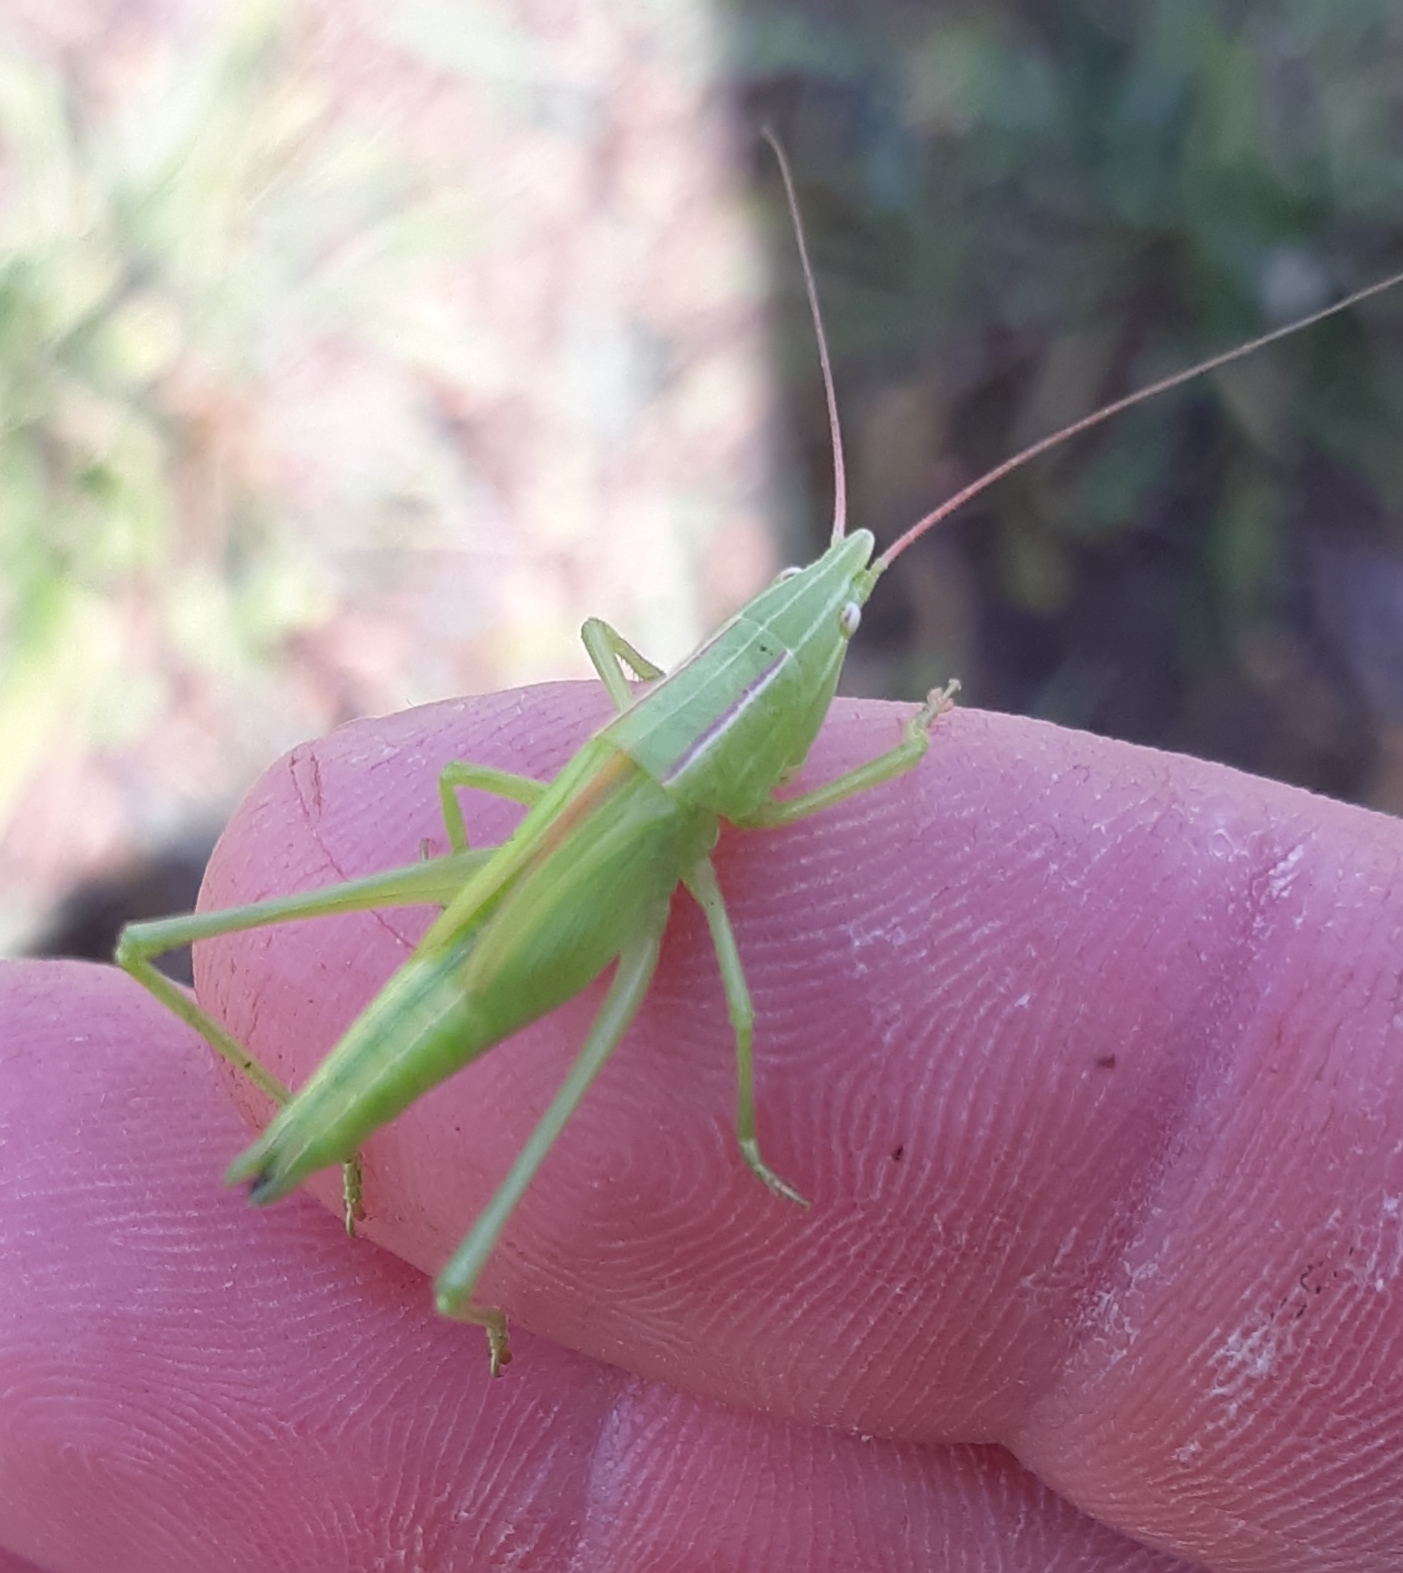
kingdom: Animalia
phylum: Arthropoda
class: Insecta
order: Orthoptera
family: Tettigoniidae
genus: Neoconocephalus
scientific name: Neoconocephalus ensiger
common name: Swordbearer
